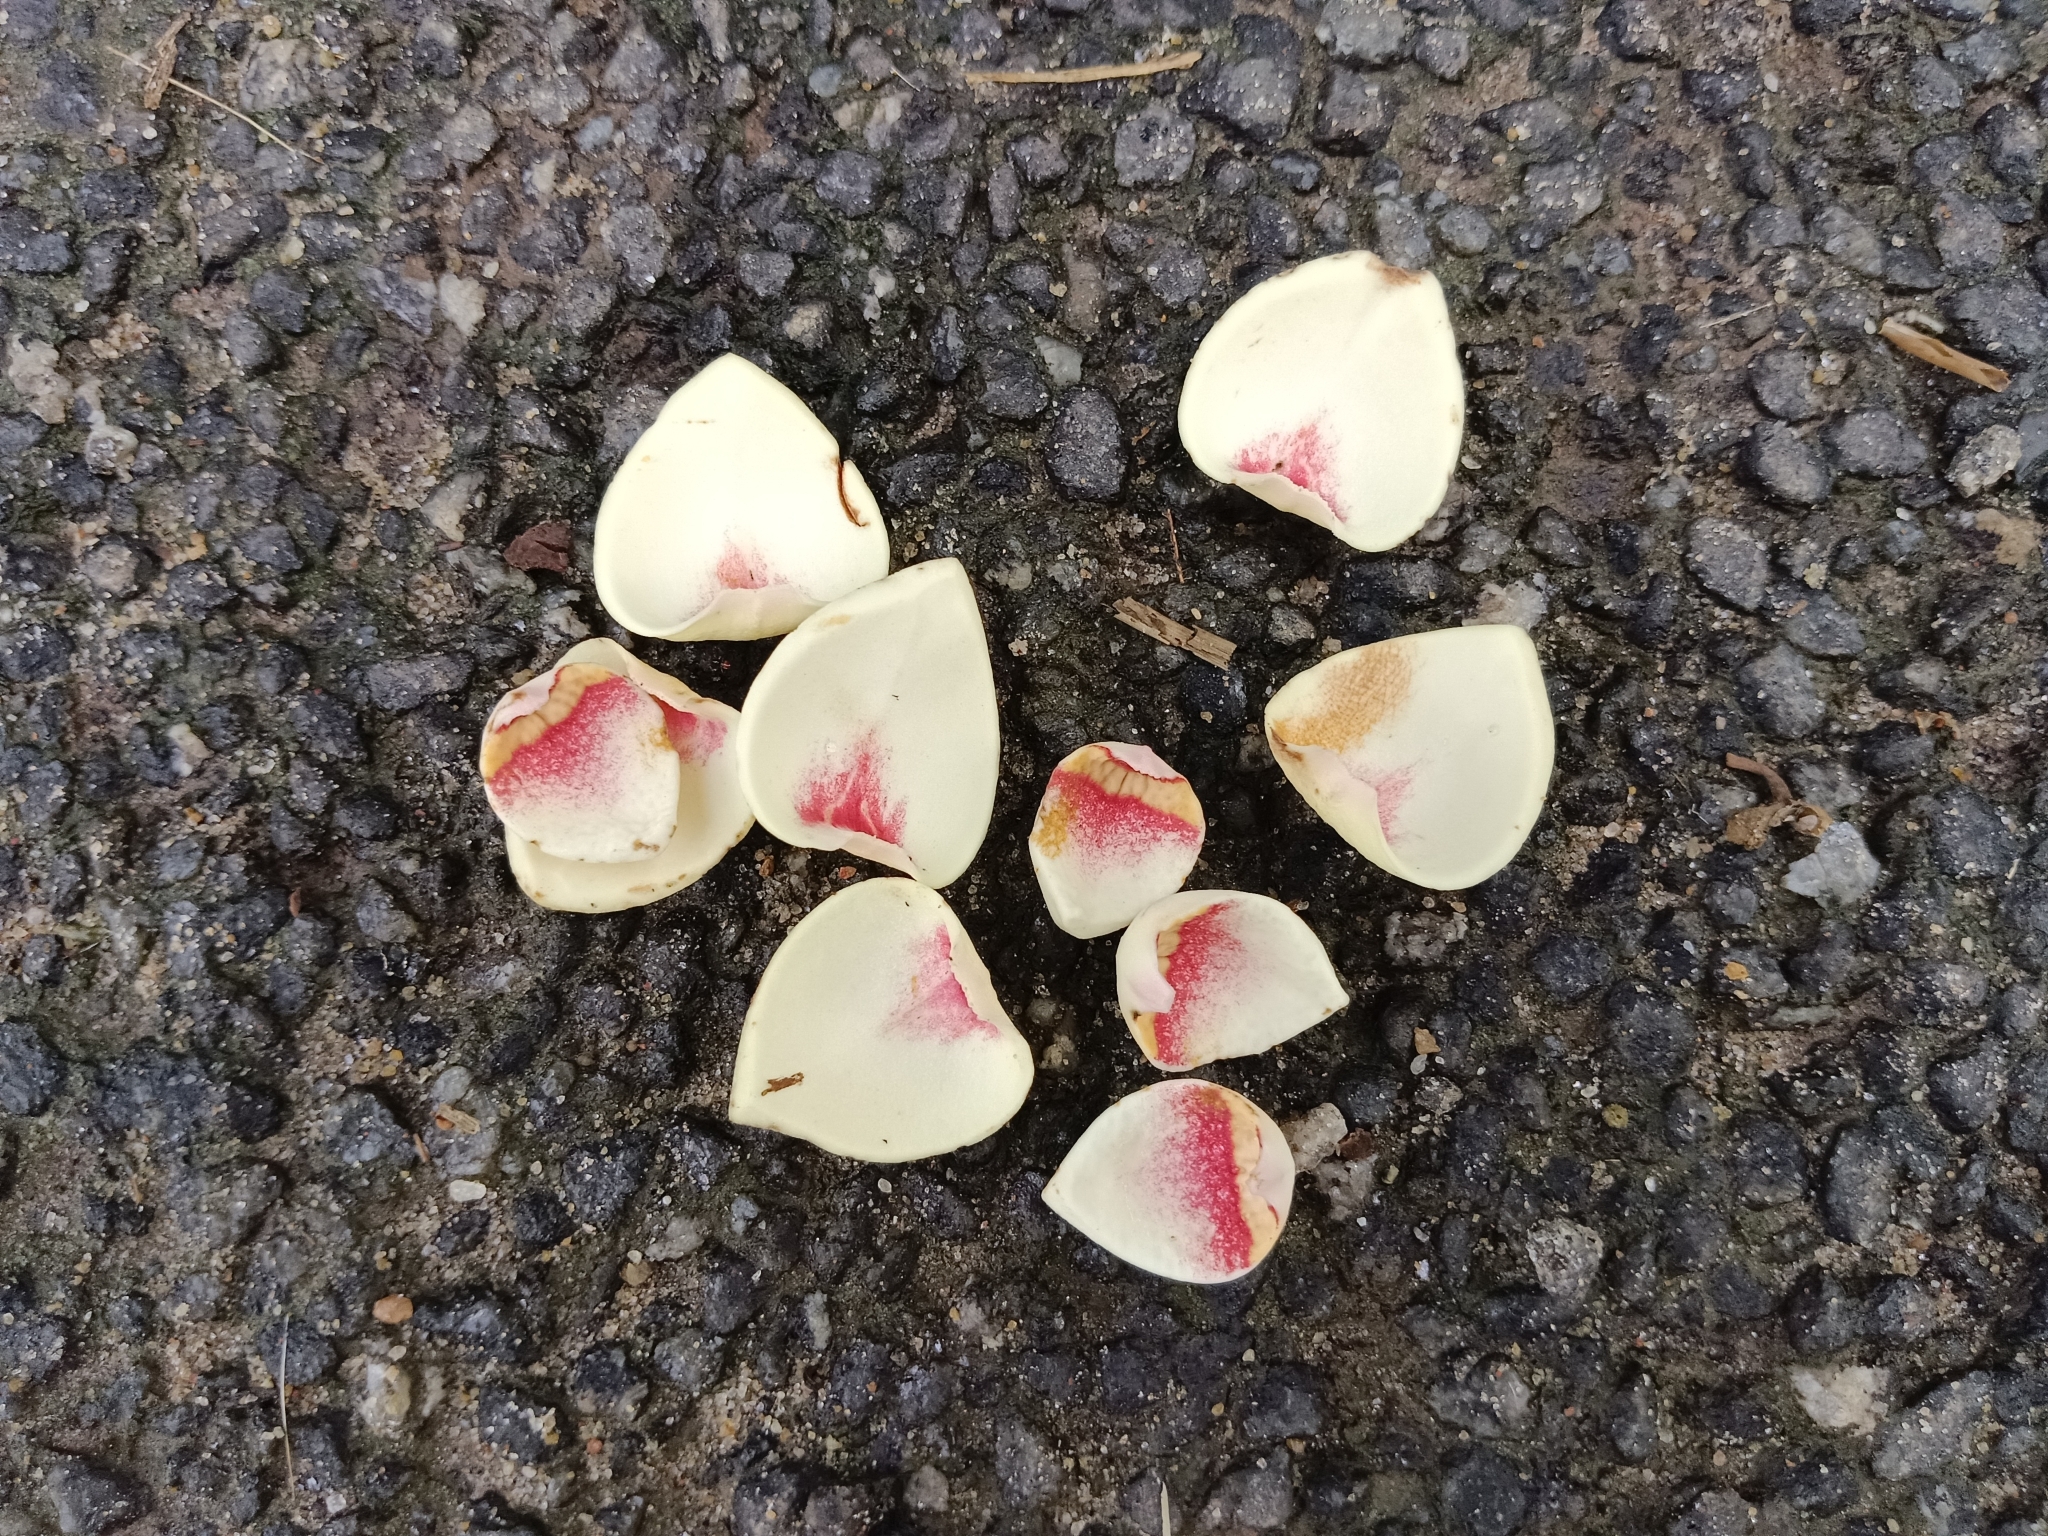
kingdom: Plantae
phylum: Tracheophyta
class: Magnoliopsida
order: Magnoliales
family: Annonaceae
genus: Annona
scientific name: Annona glabra
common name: Monkey apple
